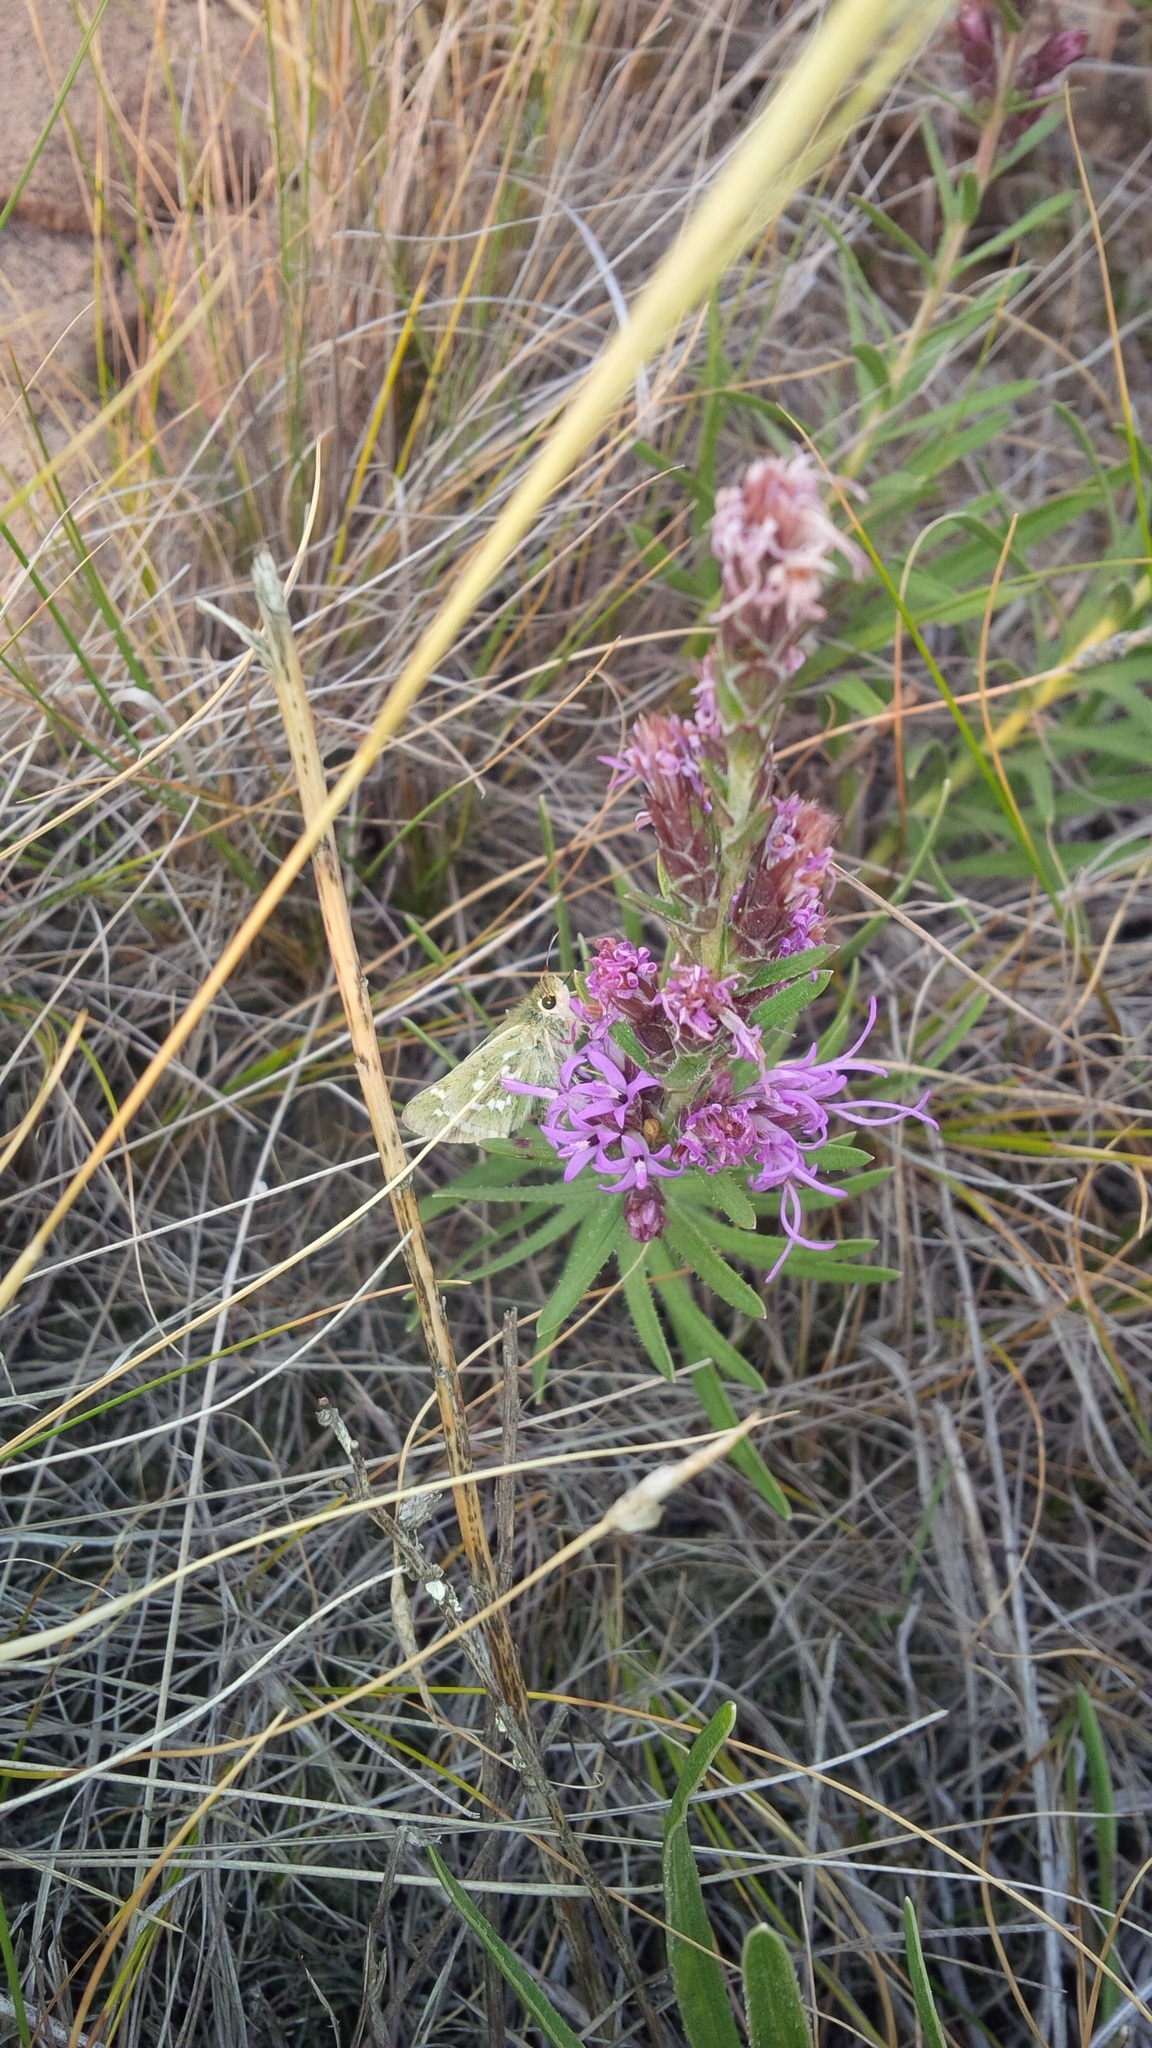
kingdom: Animalia
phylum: Arthropoda
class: Insecta
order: Lepidoptera
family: Hesperiidae
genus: Hesperia
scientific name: Hesperia comma
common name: Common branded skipper
